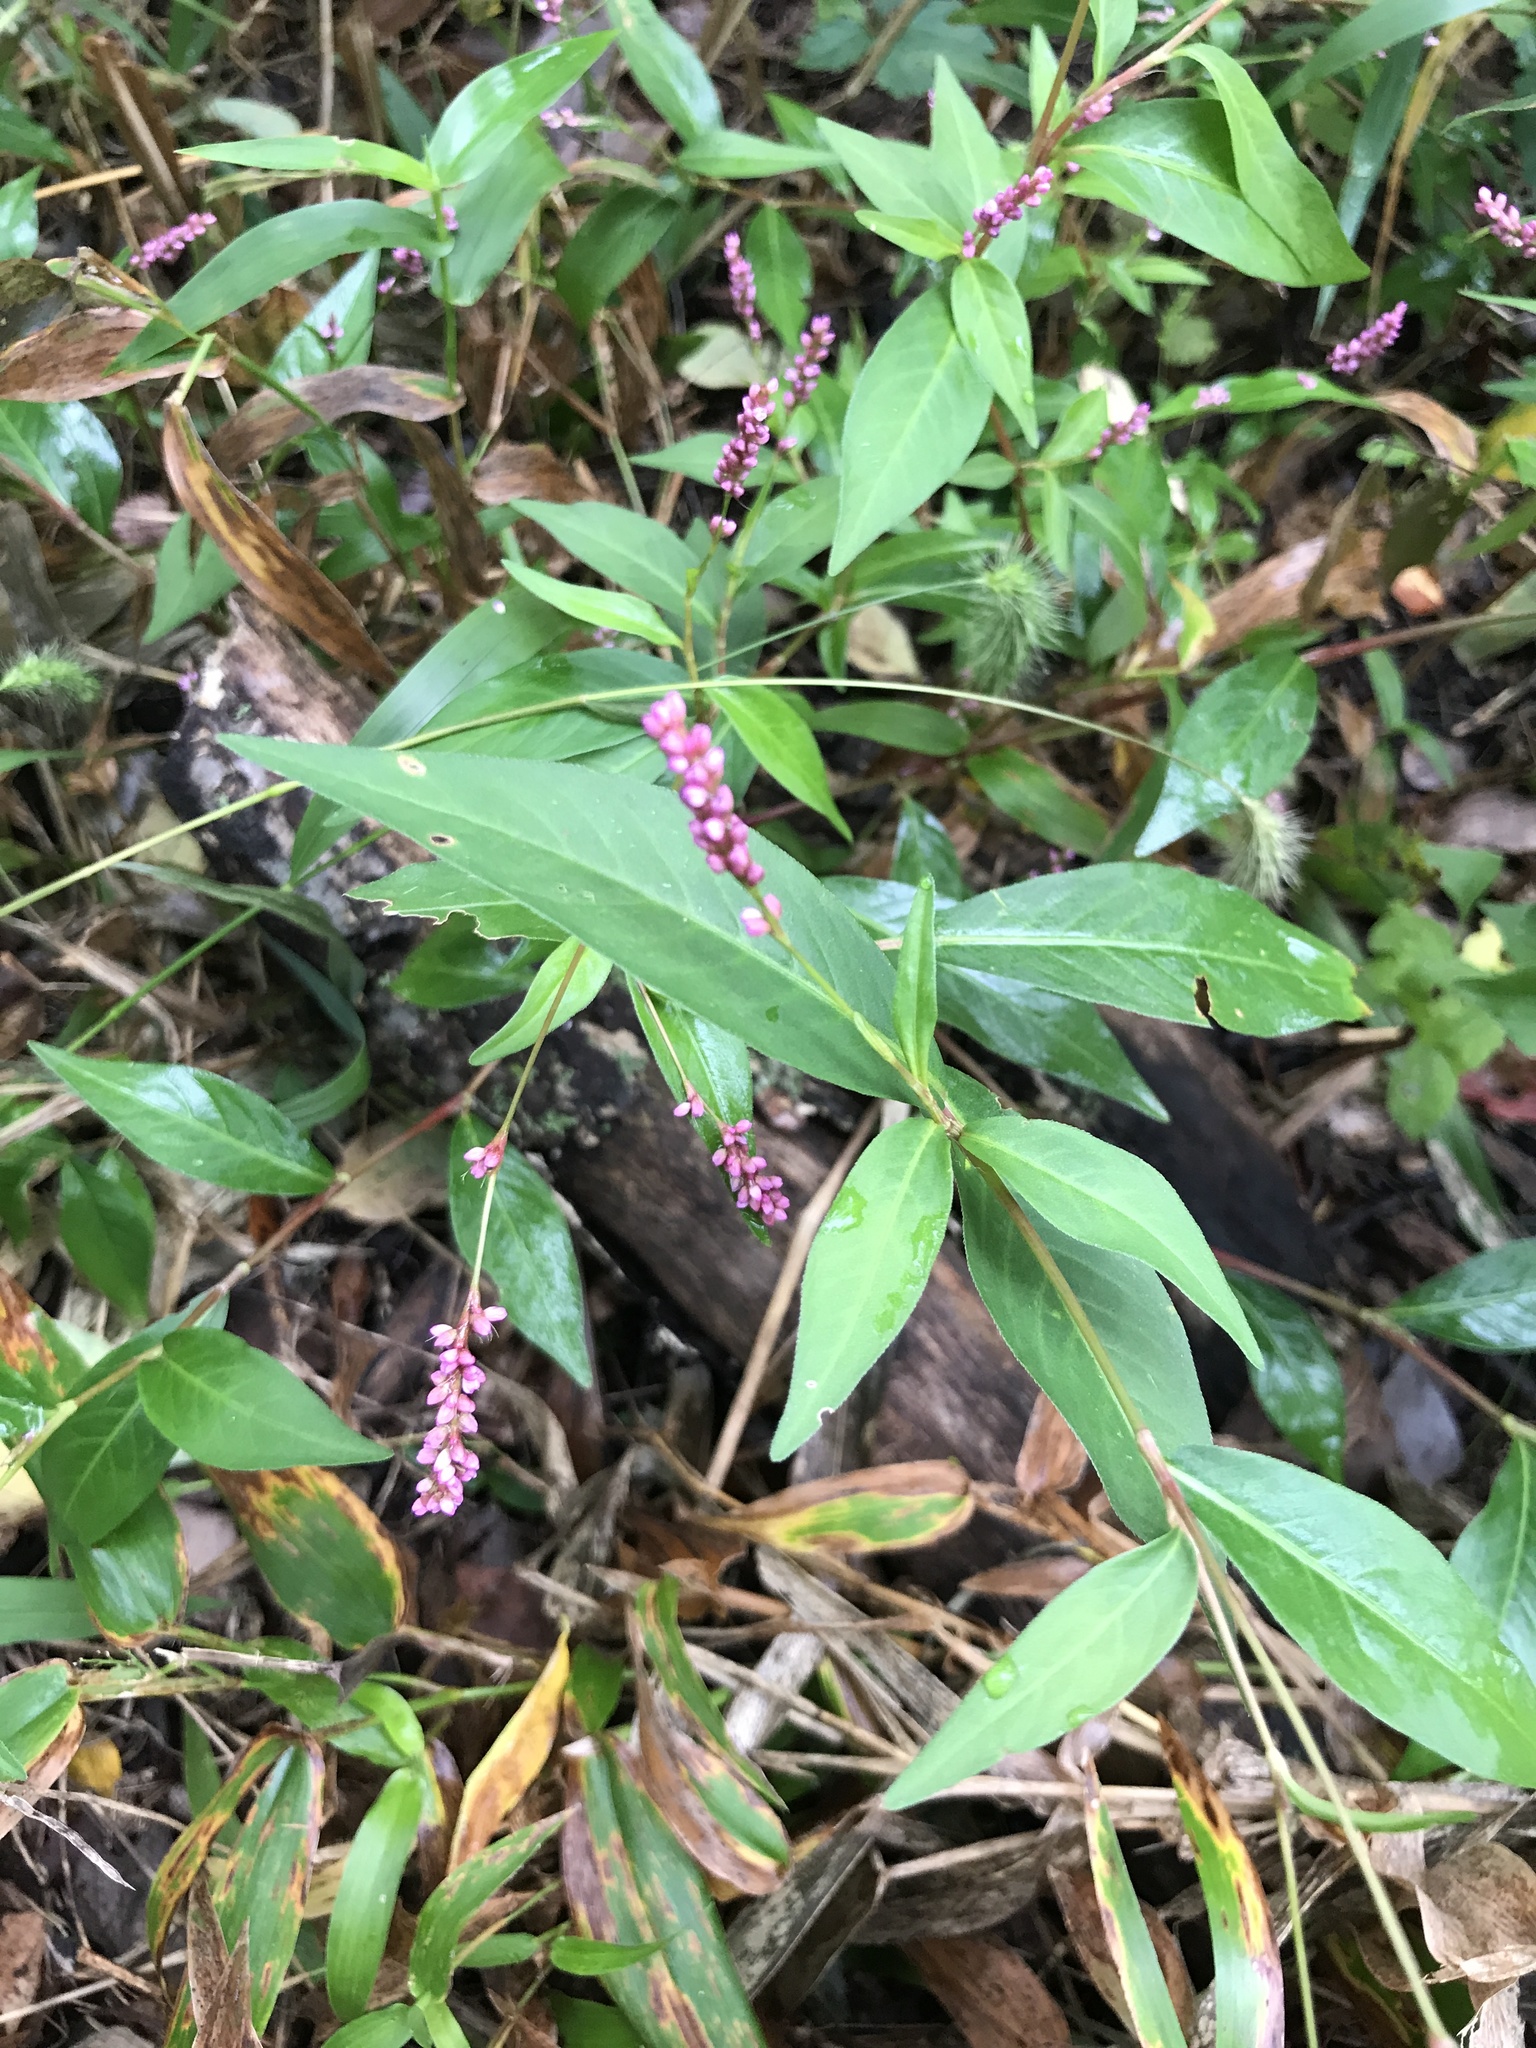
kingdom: Plantae
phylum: Tracheophyta
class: Magnoliopsida
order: Caryophyllales
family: Polygonaceae
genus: Persicaria
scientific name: Persicaria longiseta
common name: Bristly lady's-thumb
